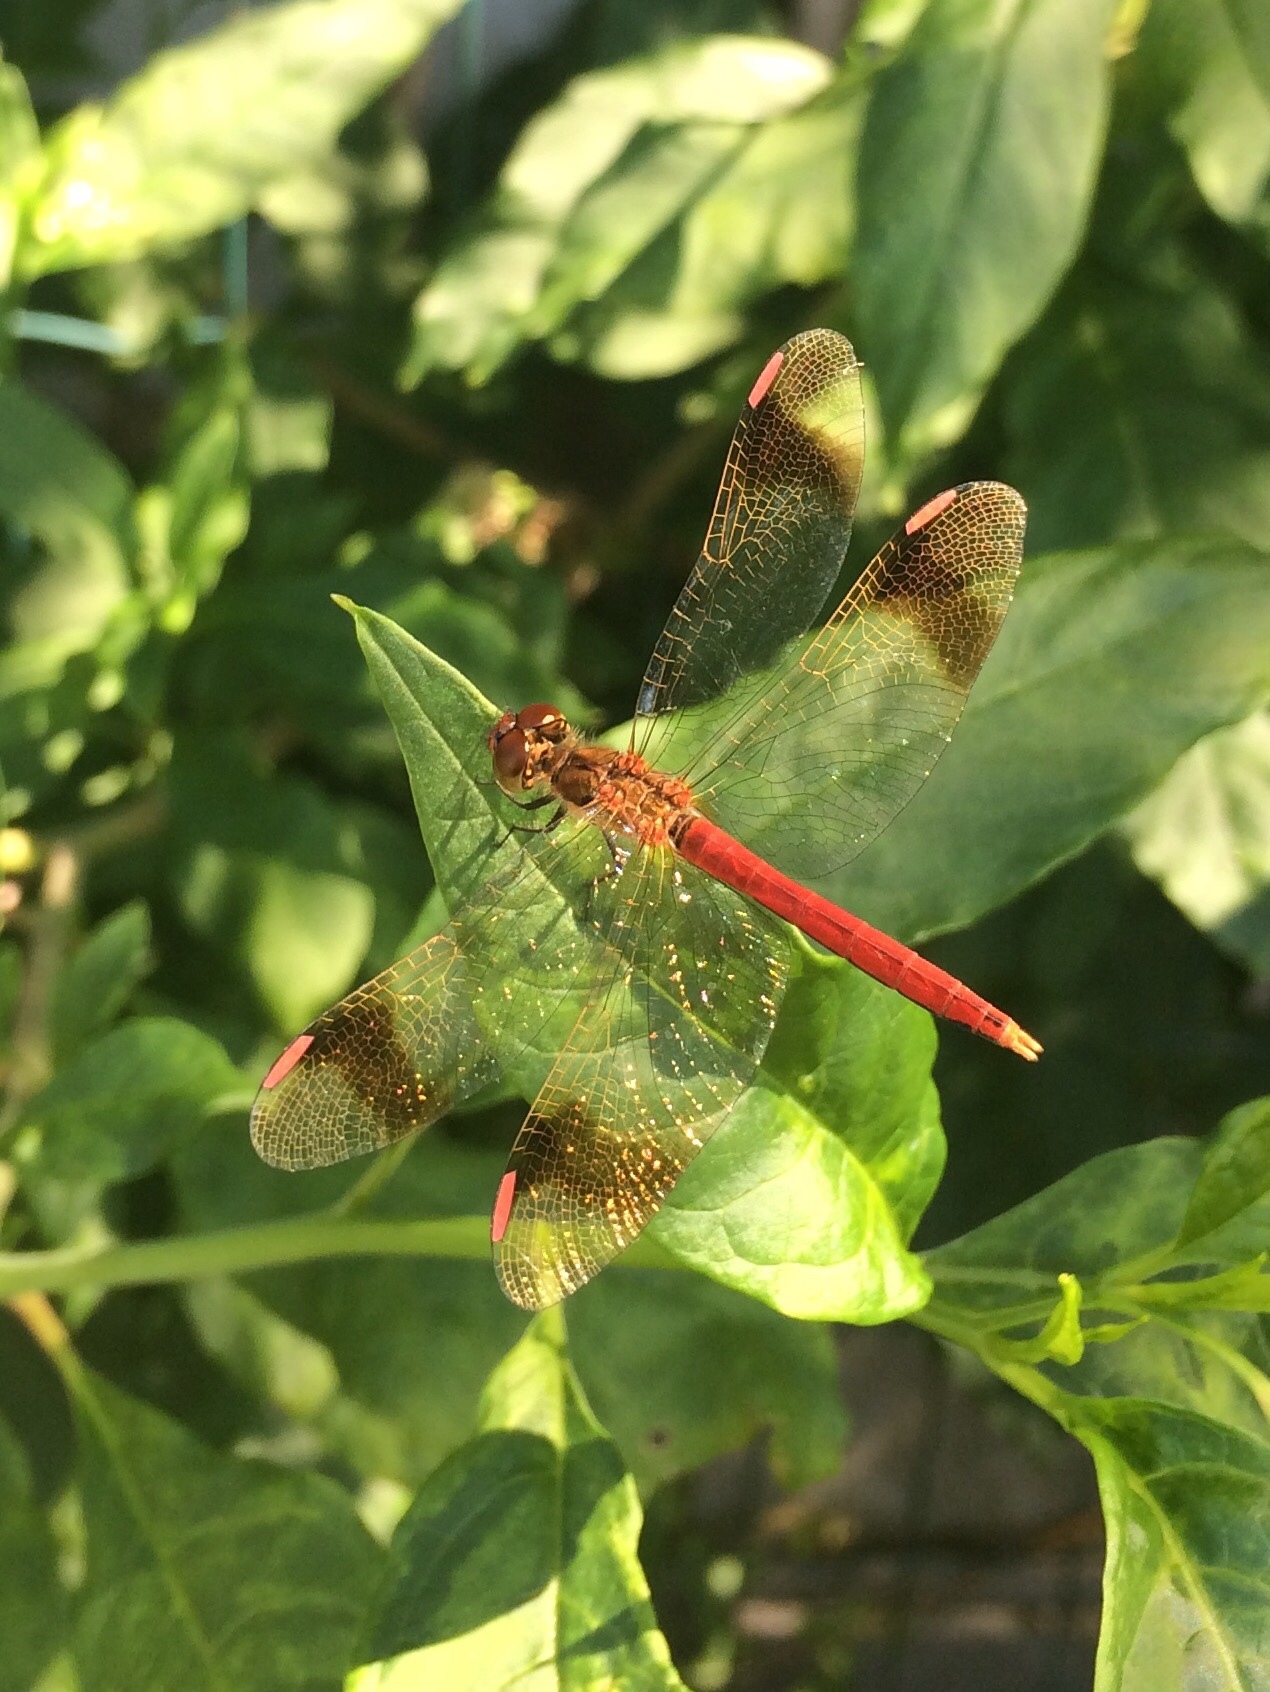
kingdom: Animalia
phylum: Arthropoda
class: Insecta
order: Odonata
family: Libellulidae
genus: Sympetrum
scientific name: Sympetrum pedemontanum
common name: Banded darter
